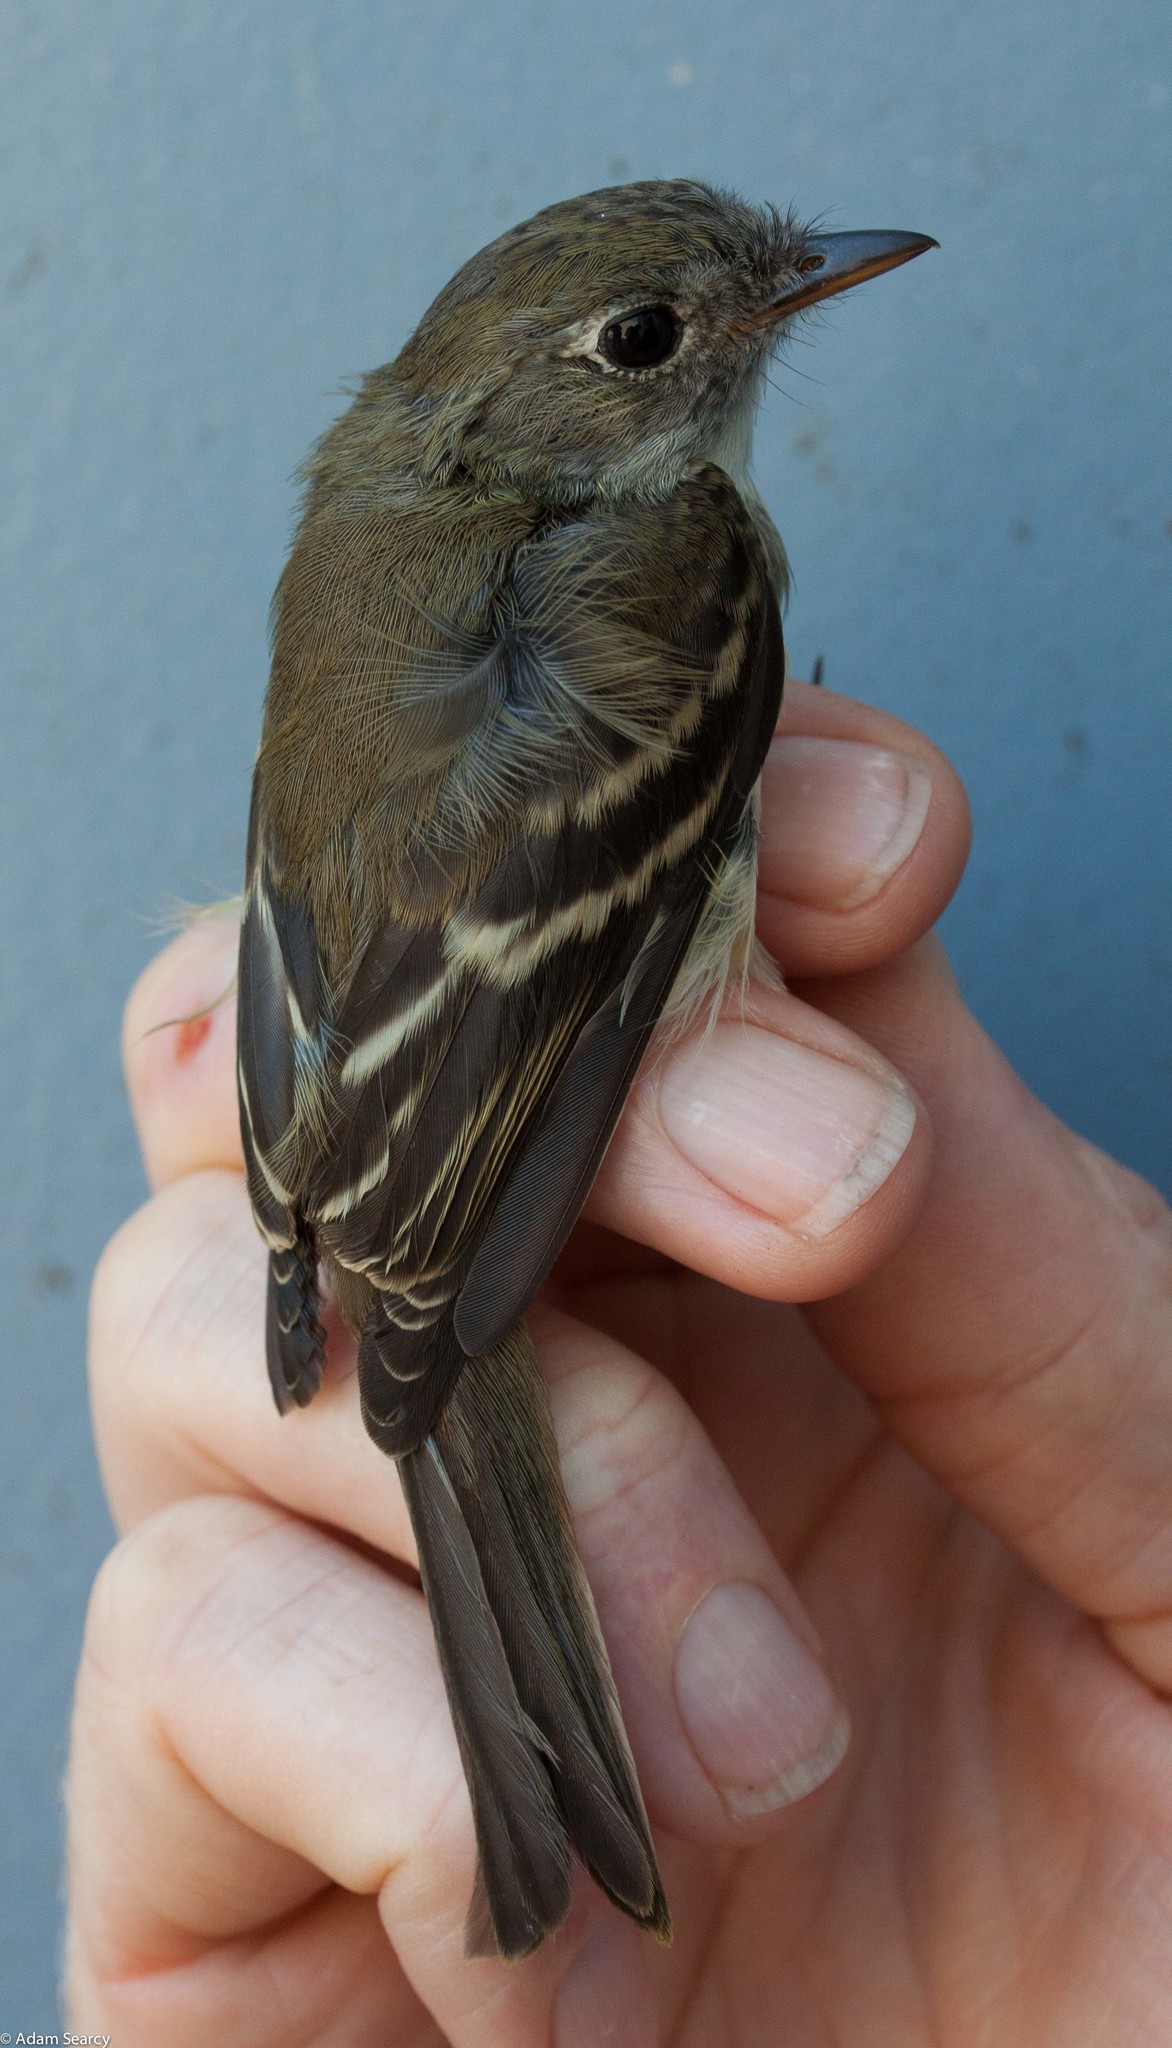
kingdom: Animalia
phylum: Chordata
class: Aves
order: Passeriformes
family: Tyrannidae
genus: Empidonax
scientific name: Empidonax minimus
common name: Least flycatcher
